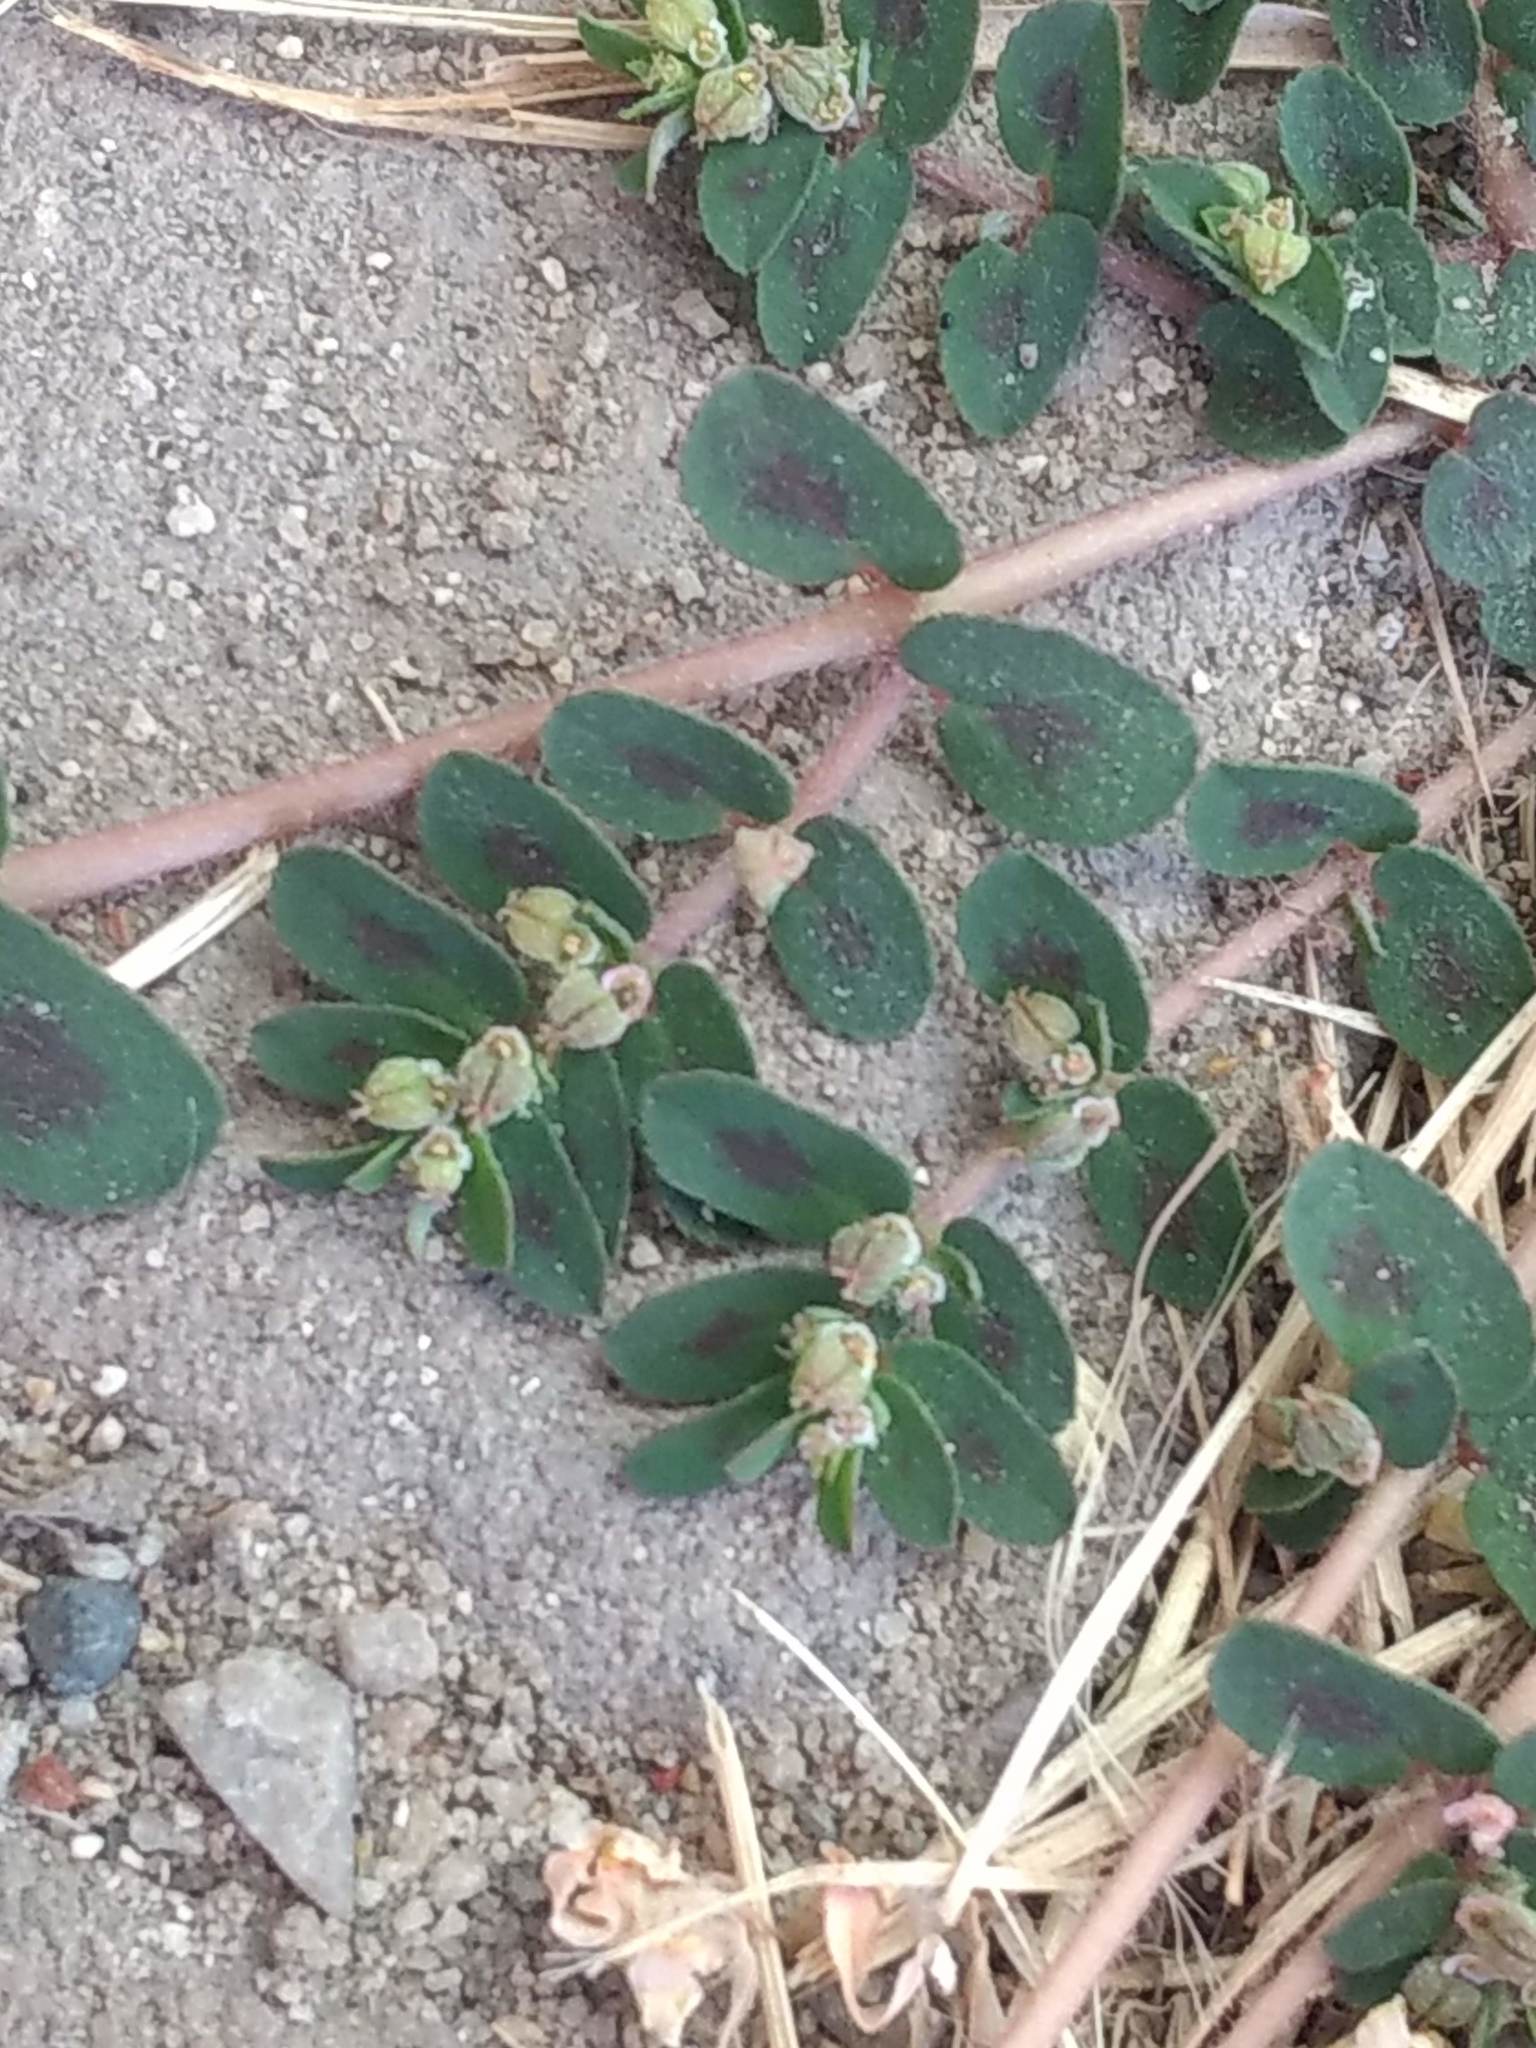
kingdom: Plantae
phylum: Tracheophyta
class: Magnoliopsida
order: Malpighiales
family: Euphorbiaceae
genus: Euphorbia
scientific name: Euphorbia maculata
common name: Spotted spurge
